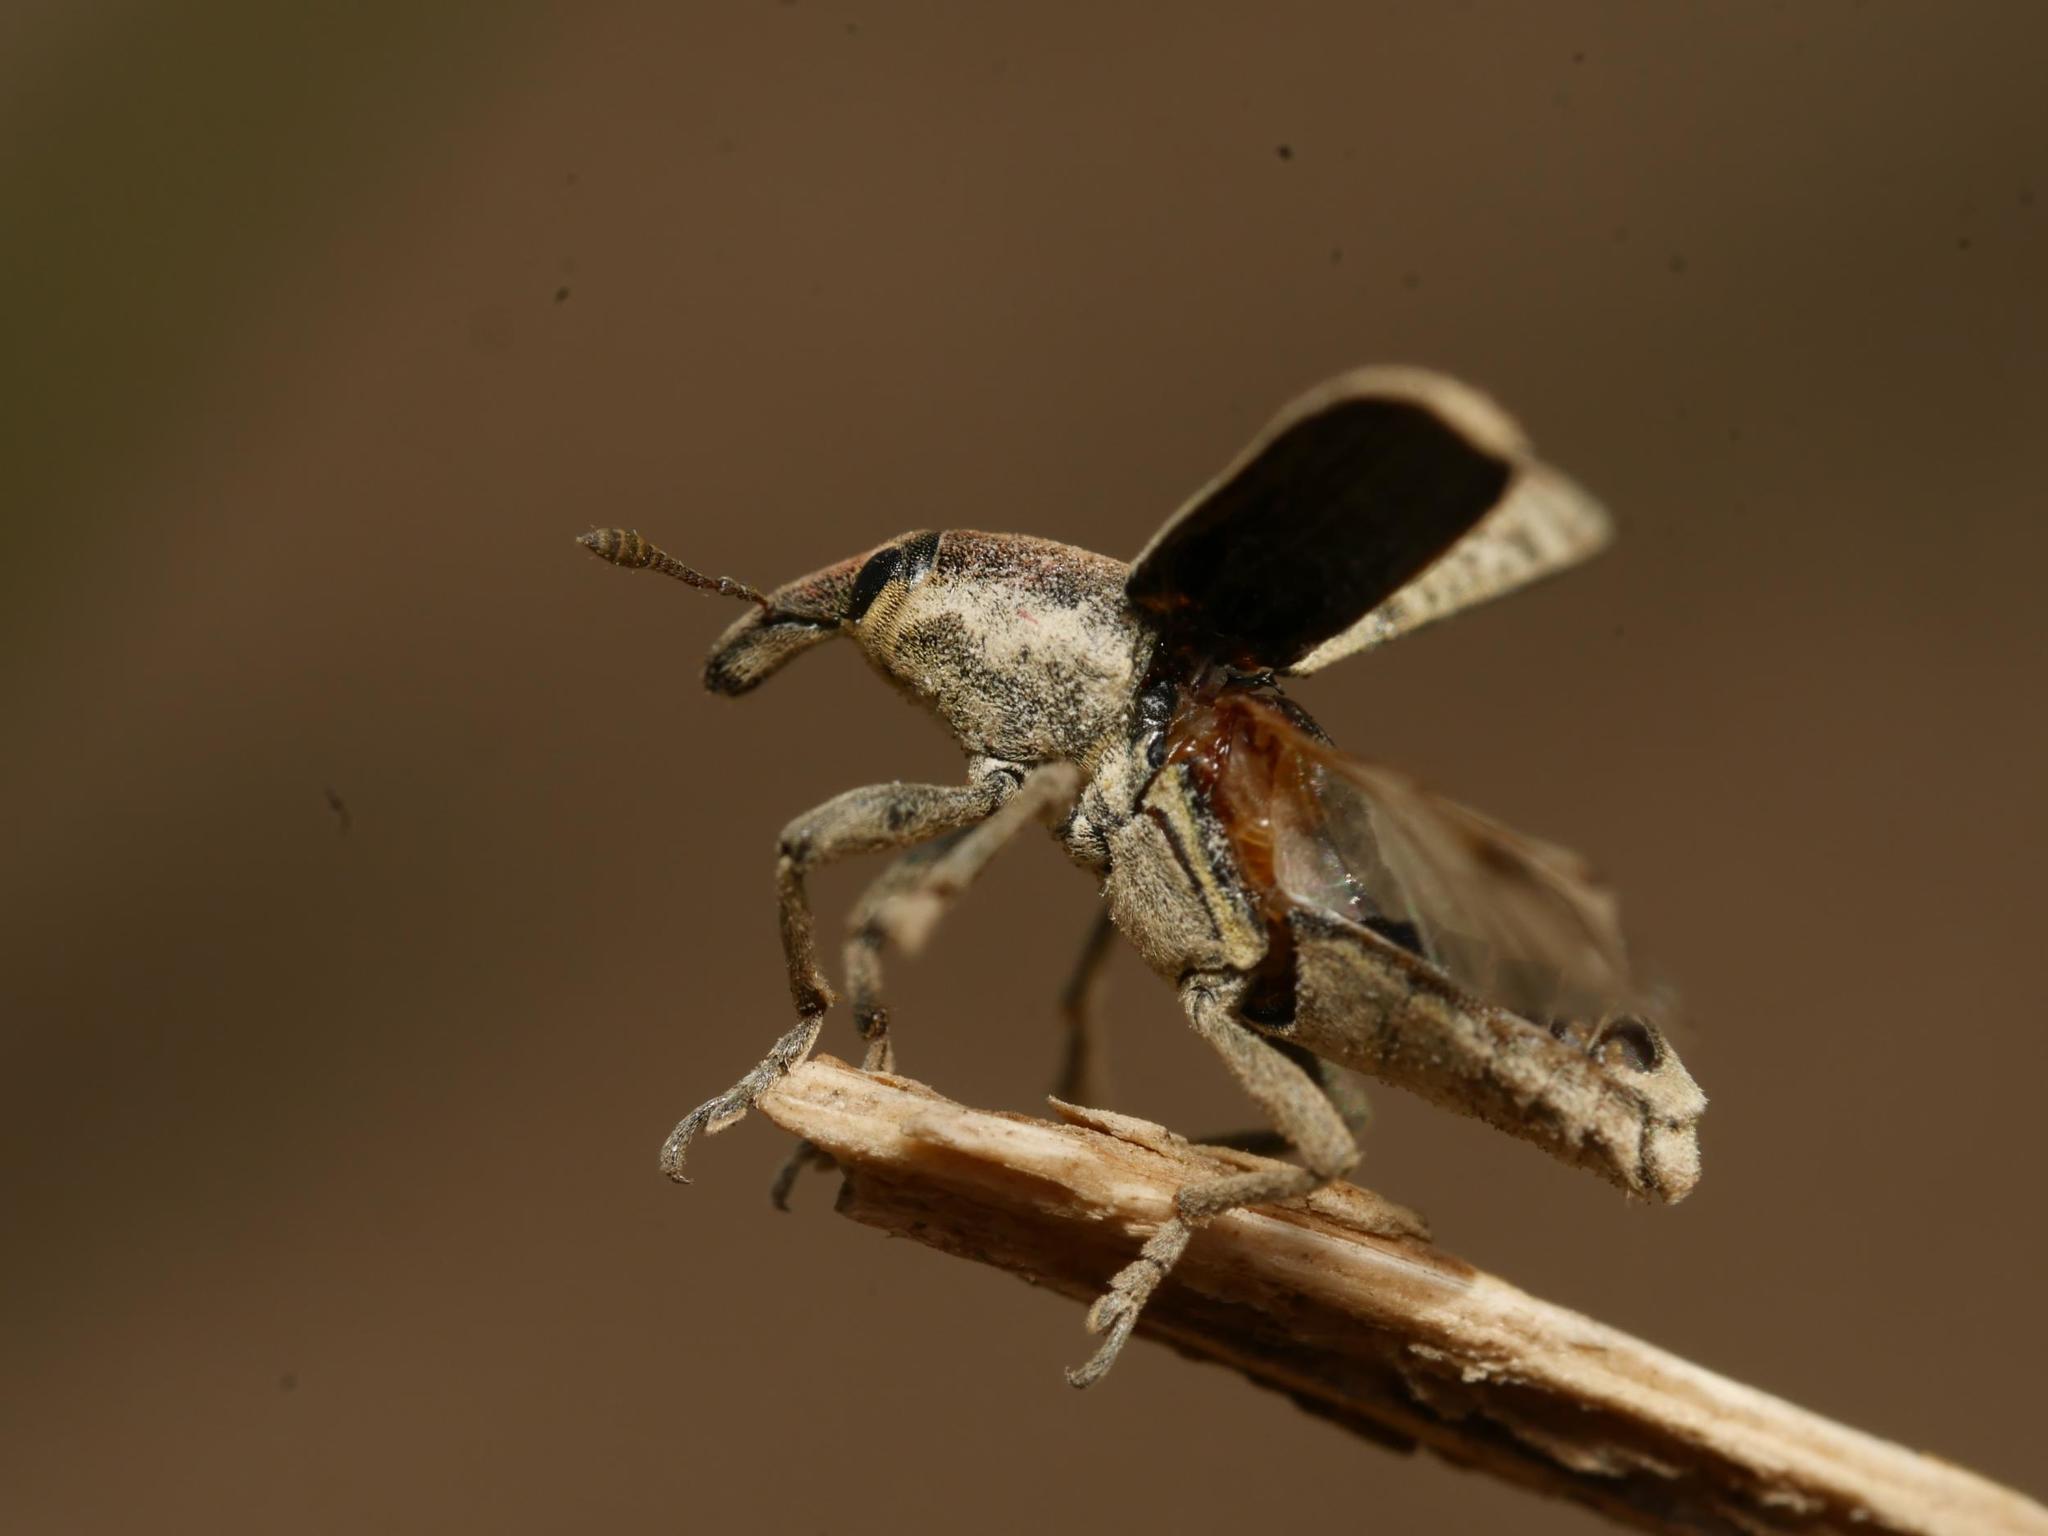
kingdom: Animalia
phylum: Arthropoda
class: Insecta
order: Coleoptera
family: Curculionidae
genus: Lixus
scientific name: Lixus rubicundus
